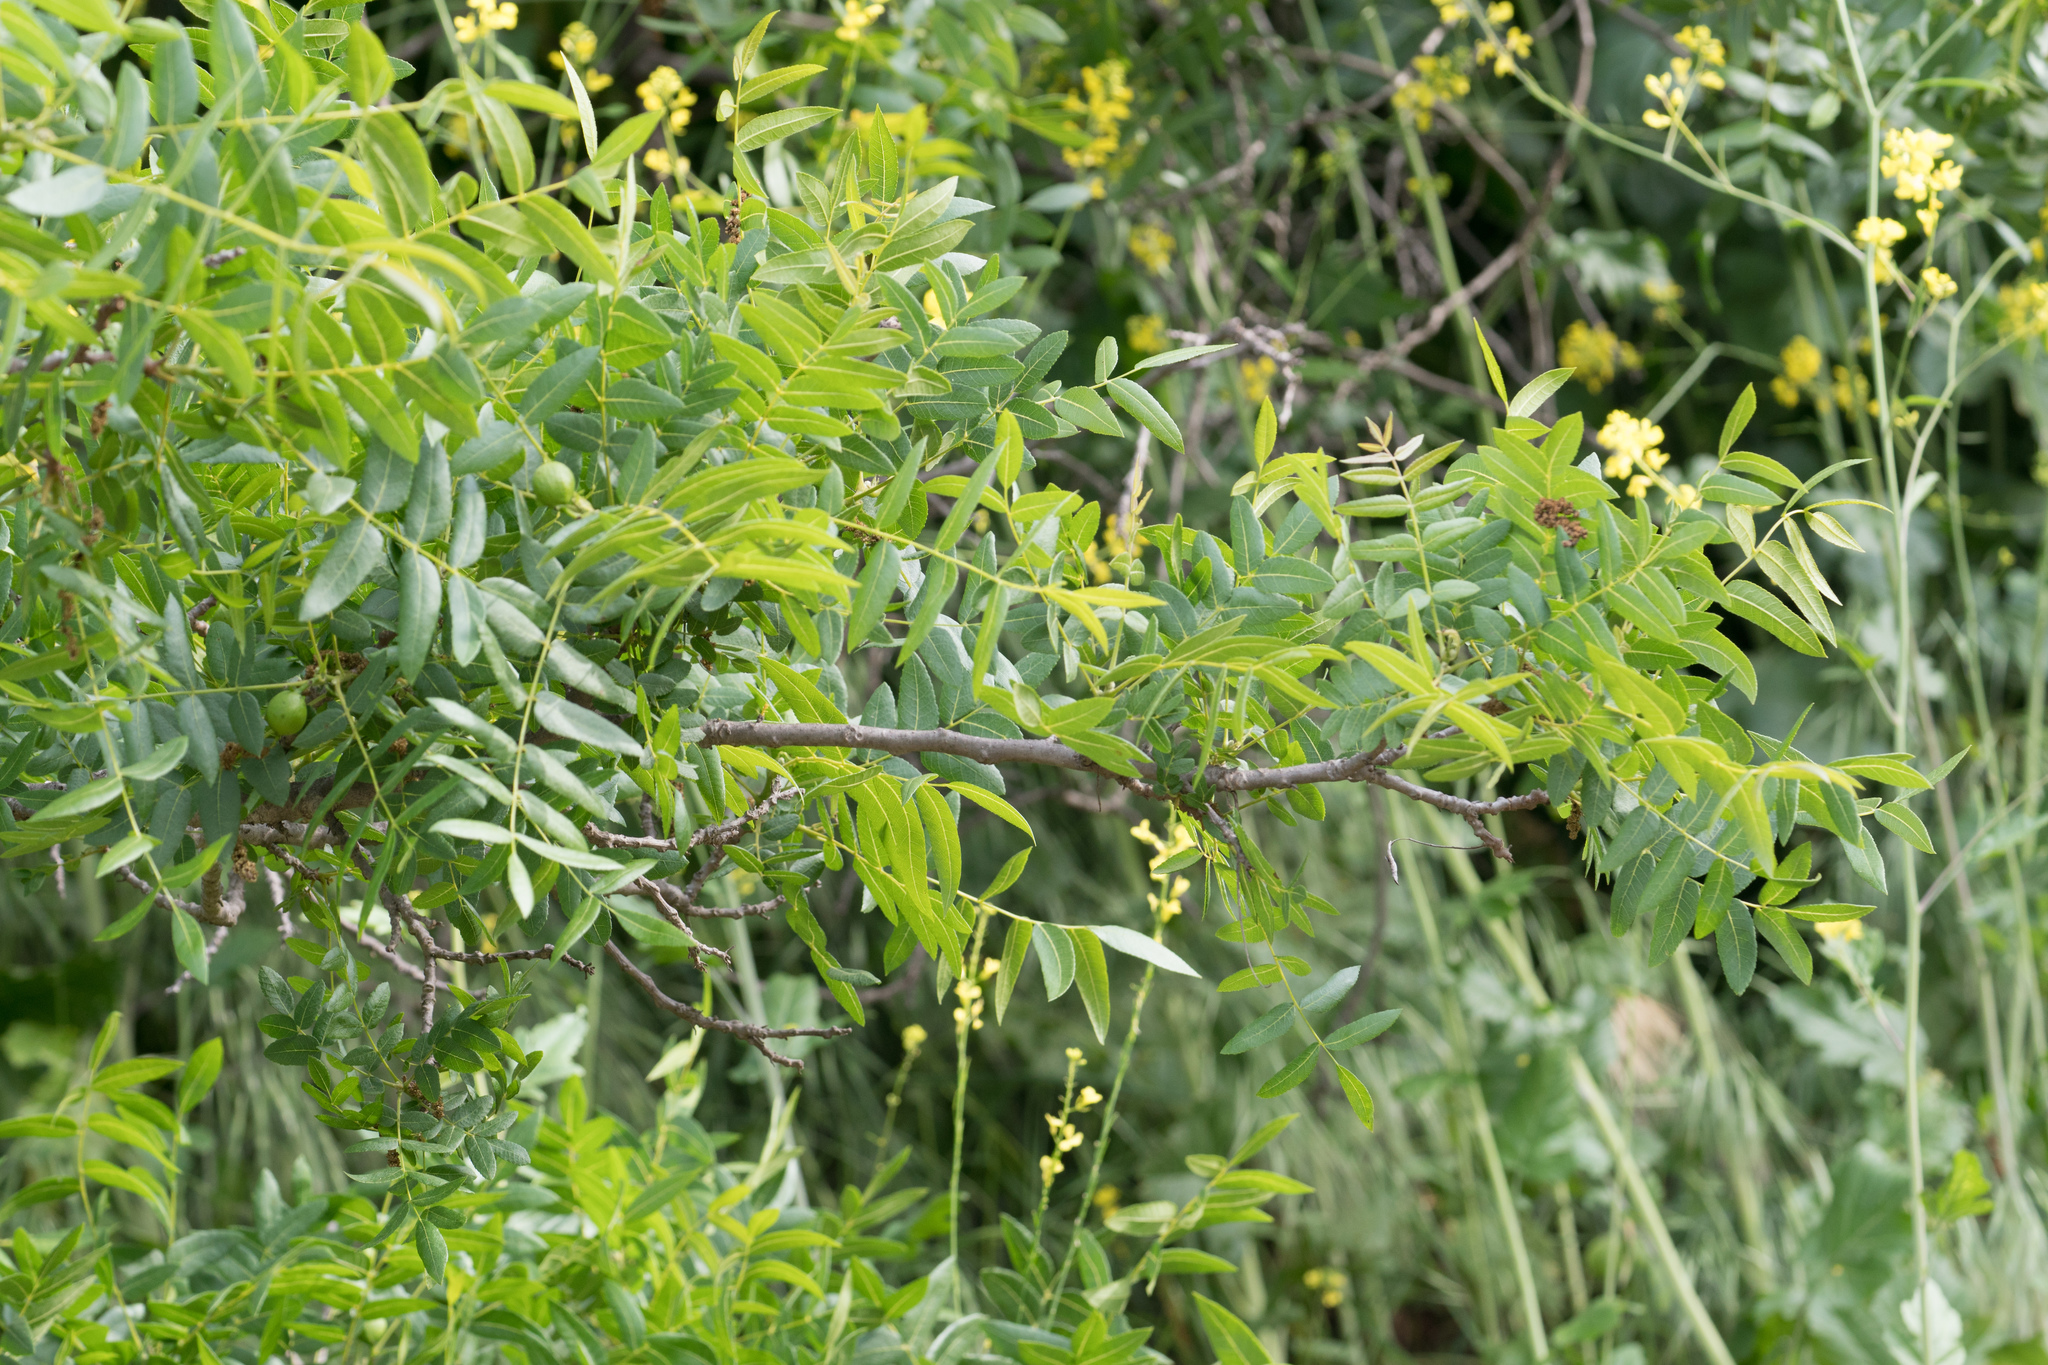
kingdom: Plantae
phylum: Tracheophyta
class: Magnoliopsida
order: Fagales
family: Juglandaceae
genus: Juglans
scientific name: Juglans californica
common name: Southern california black walnut
